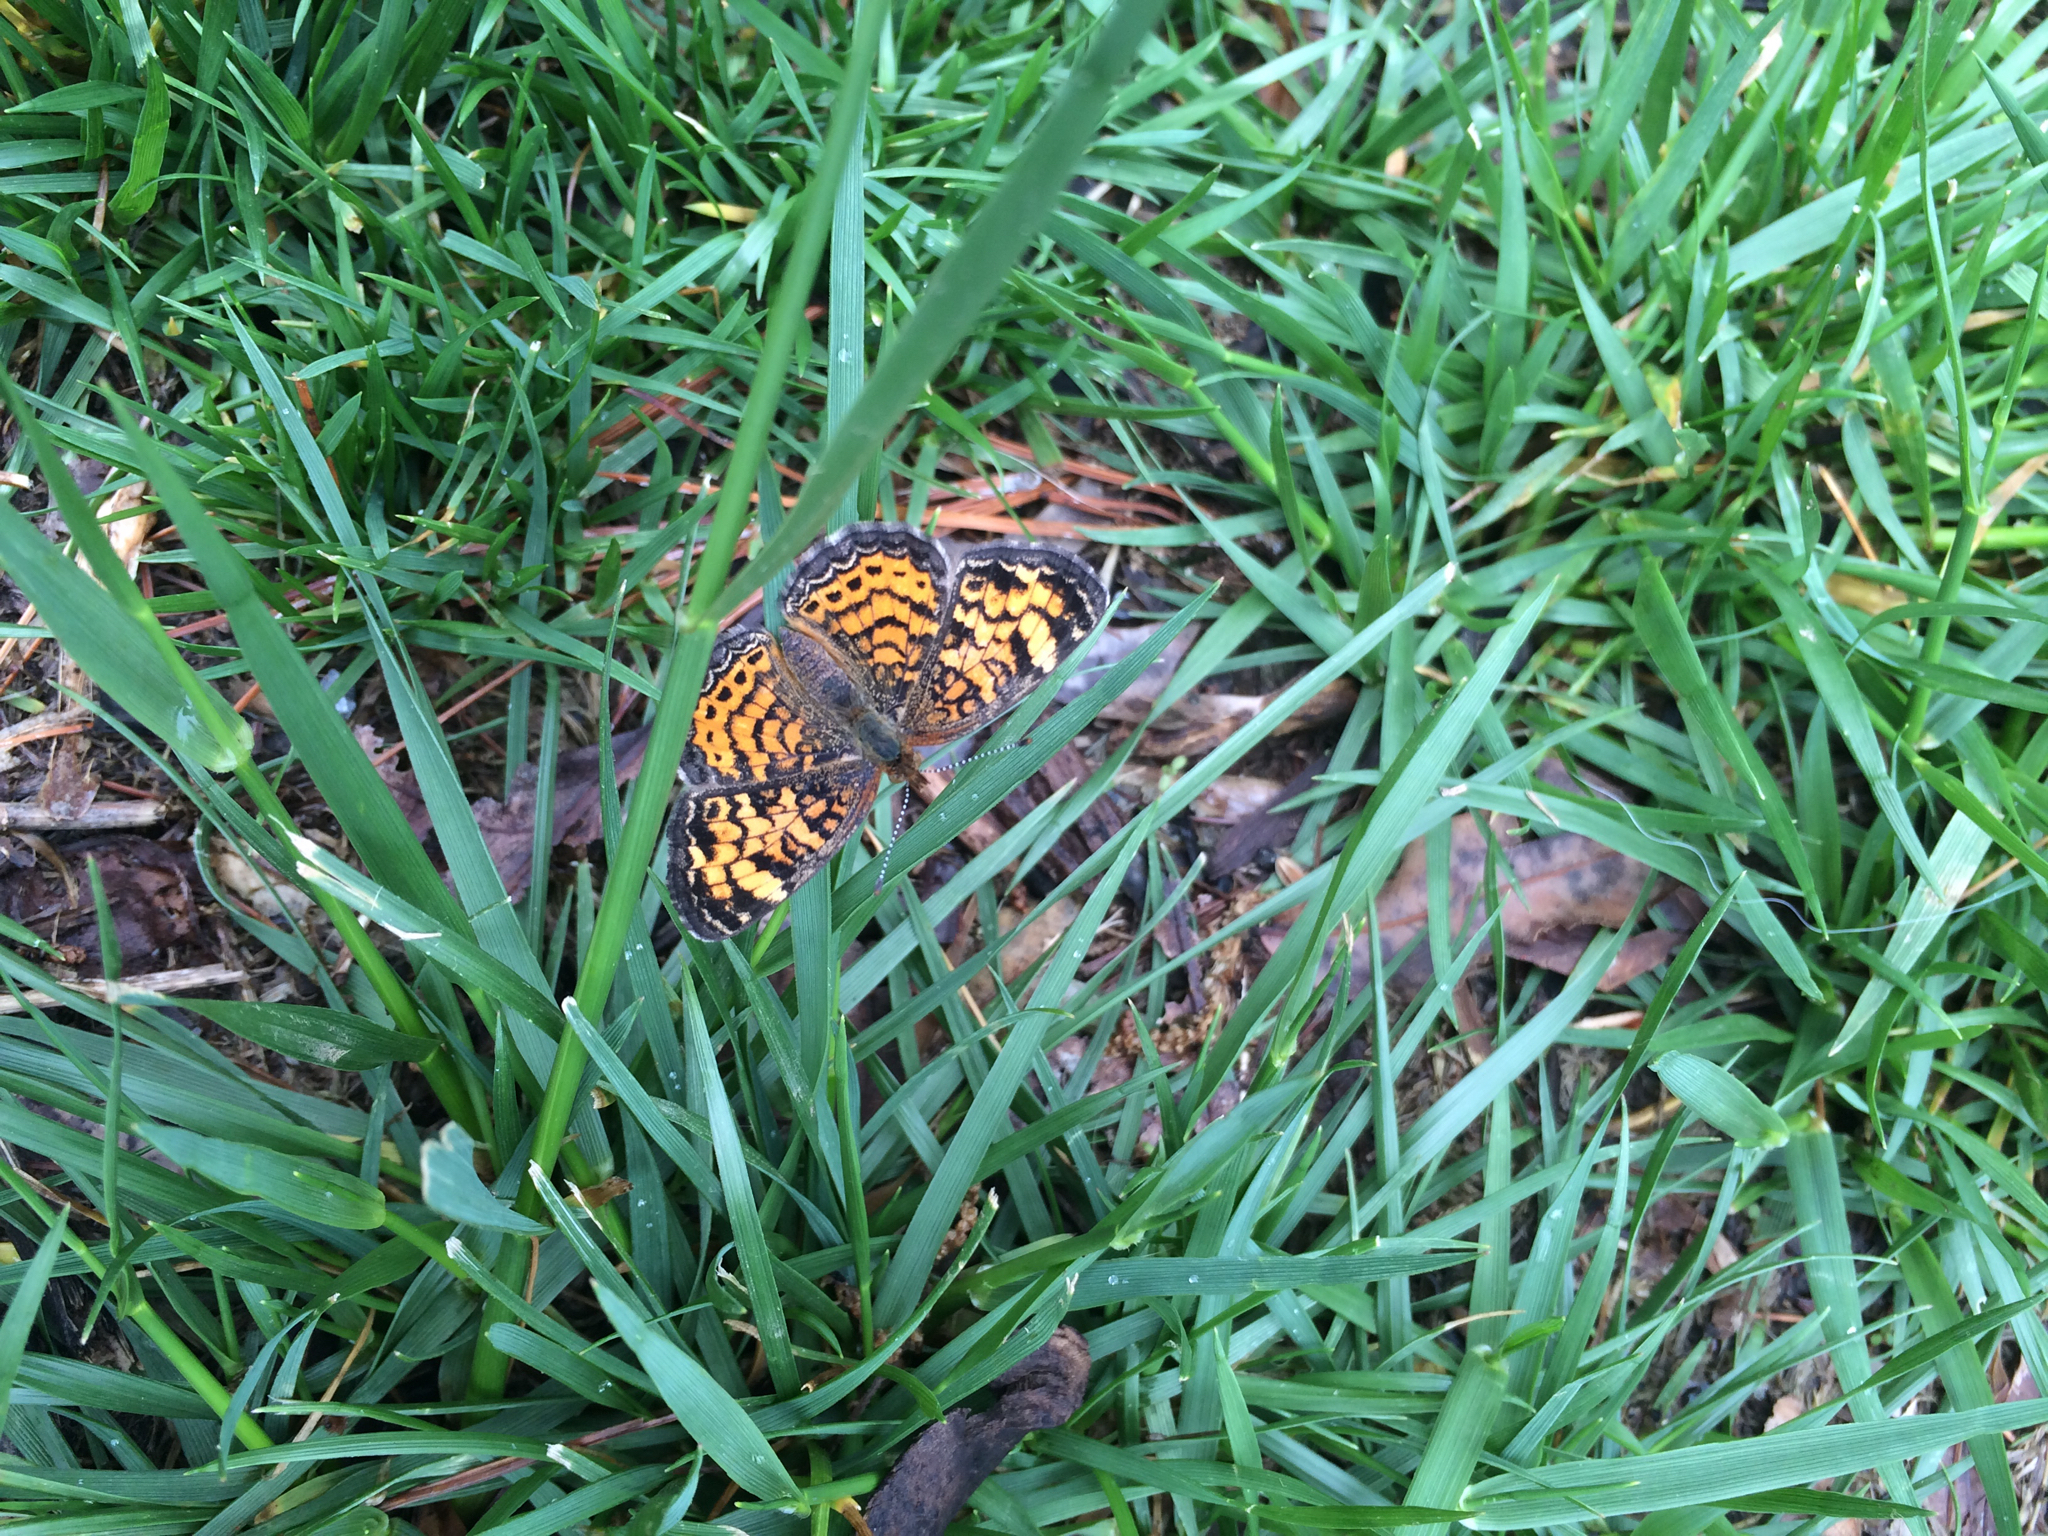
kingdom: Animalia
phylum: Arthropoda
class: Insecta
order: Lepidoptera
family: Nymphalidae
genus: Phyciodes
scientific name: Phyciodes tharos
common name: Pearl crescent
